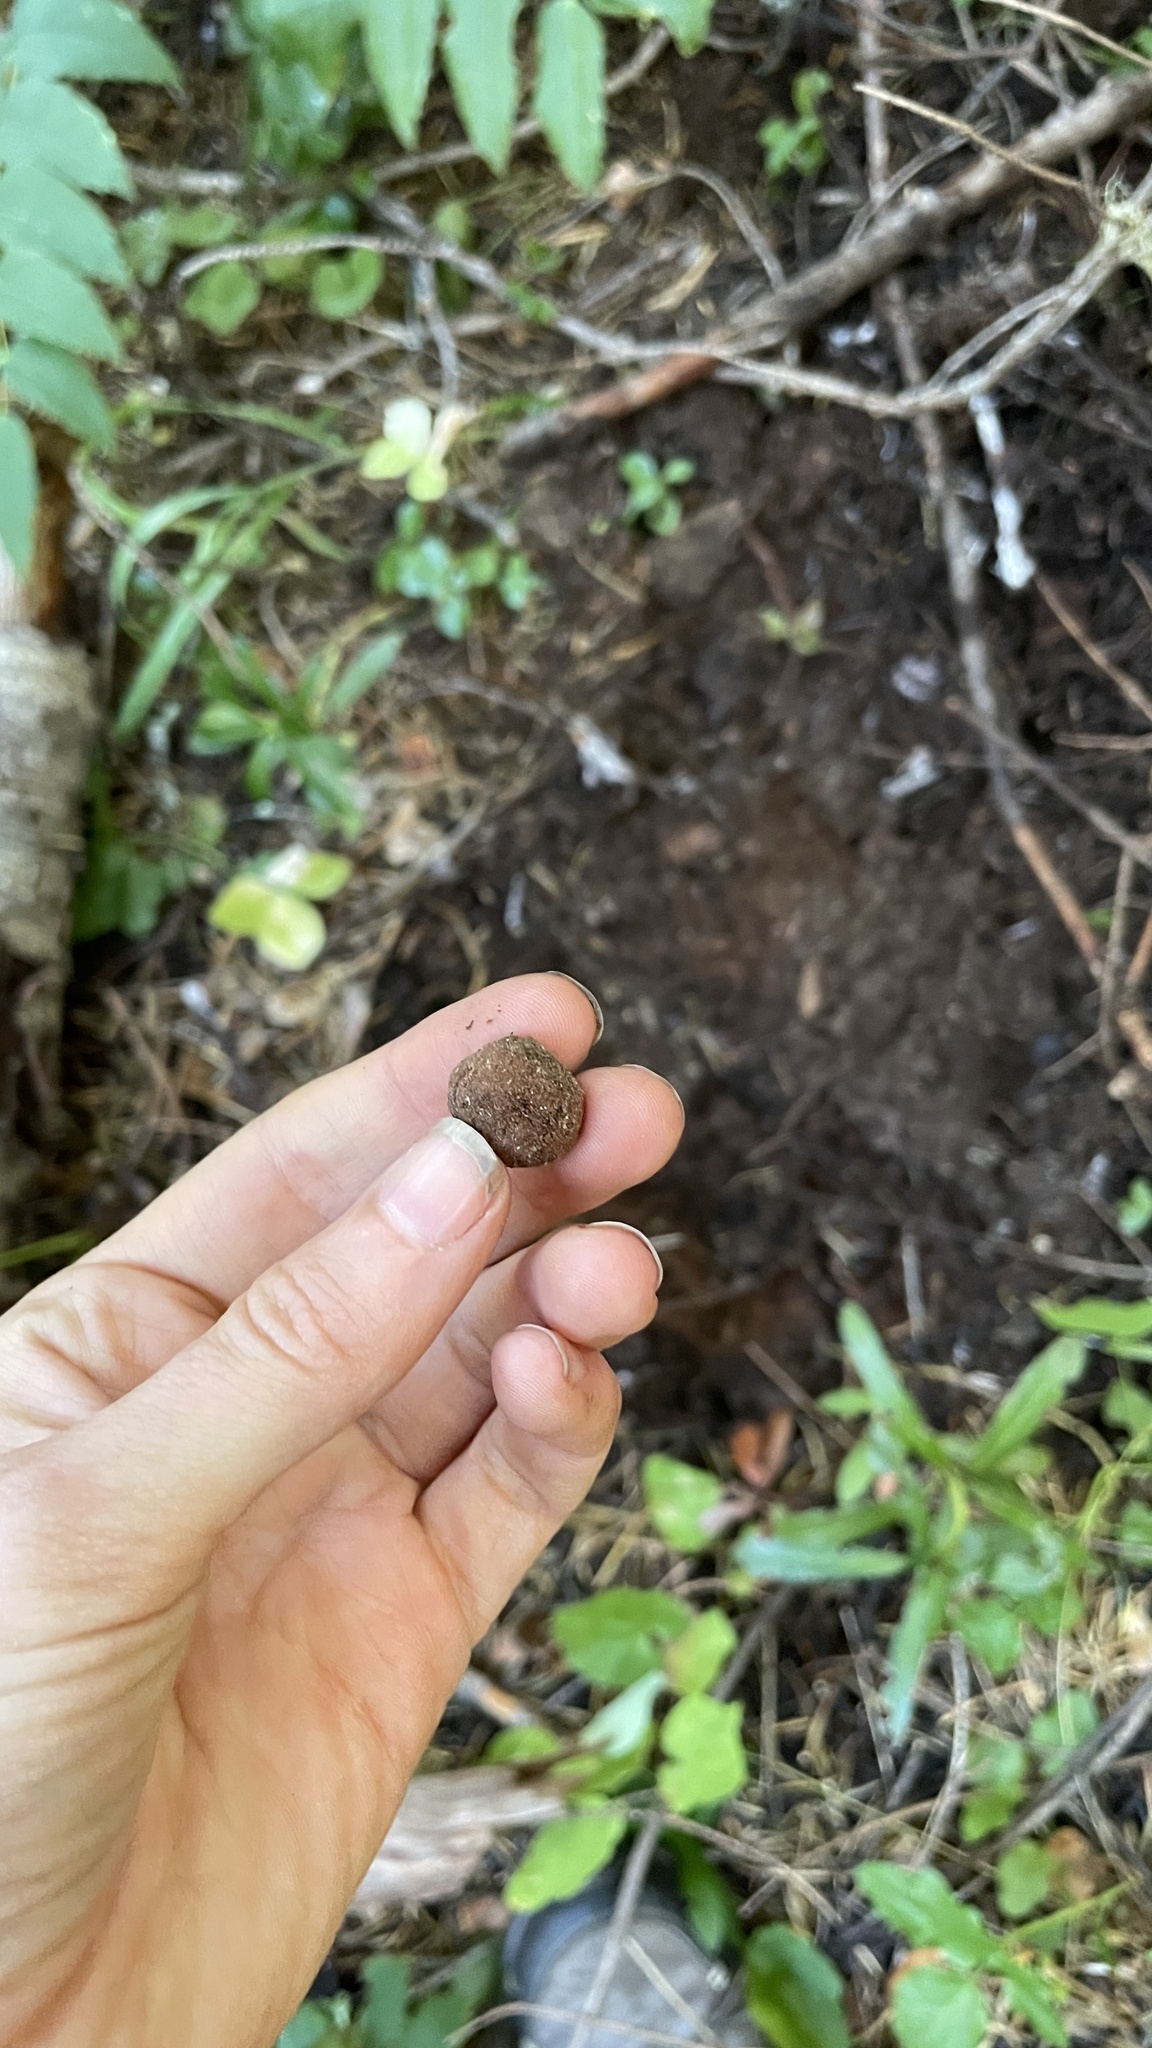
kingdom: Fungi
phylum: Ascomycota
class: Pezizomycetes
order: Pezizales
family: Tuberaceae
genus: Tuber
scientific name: Tuber whetstonense
